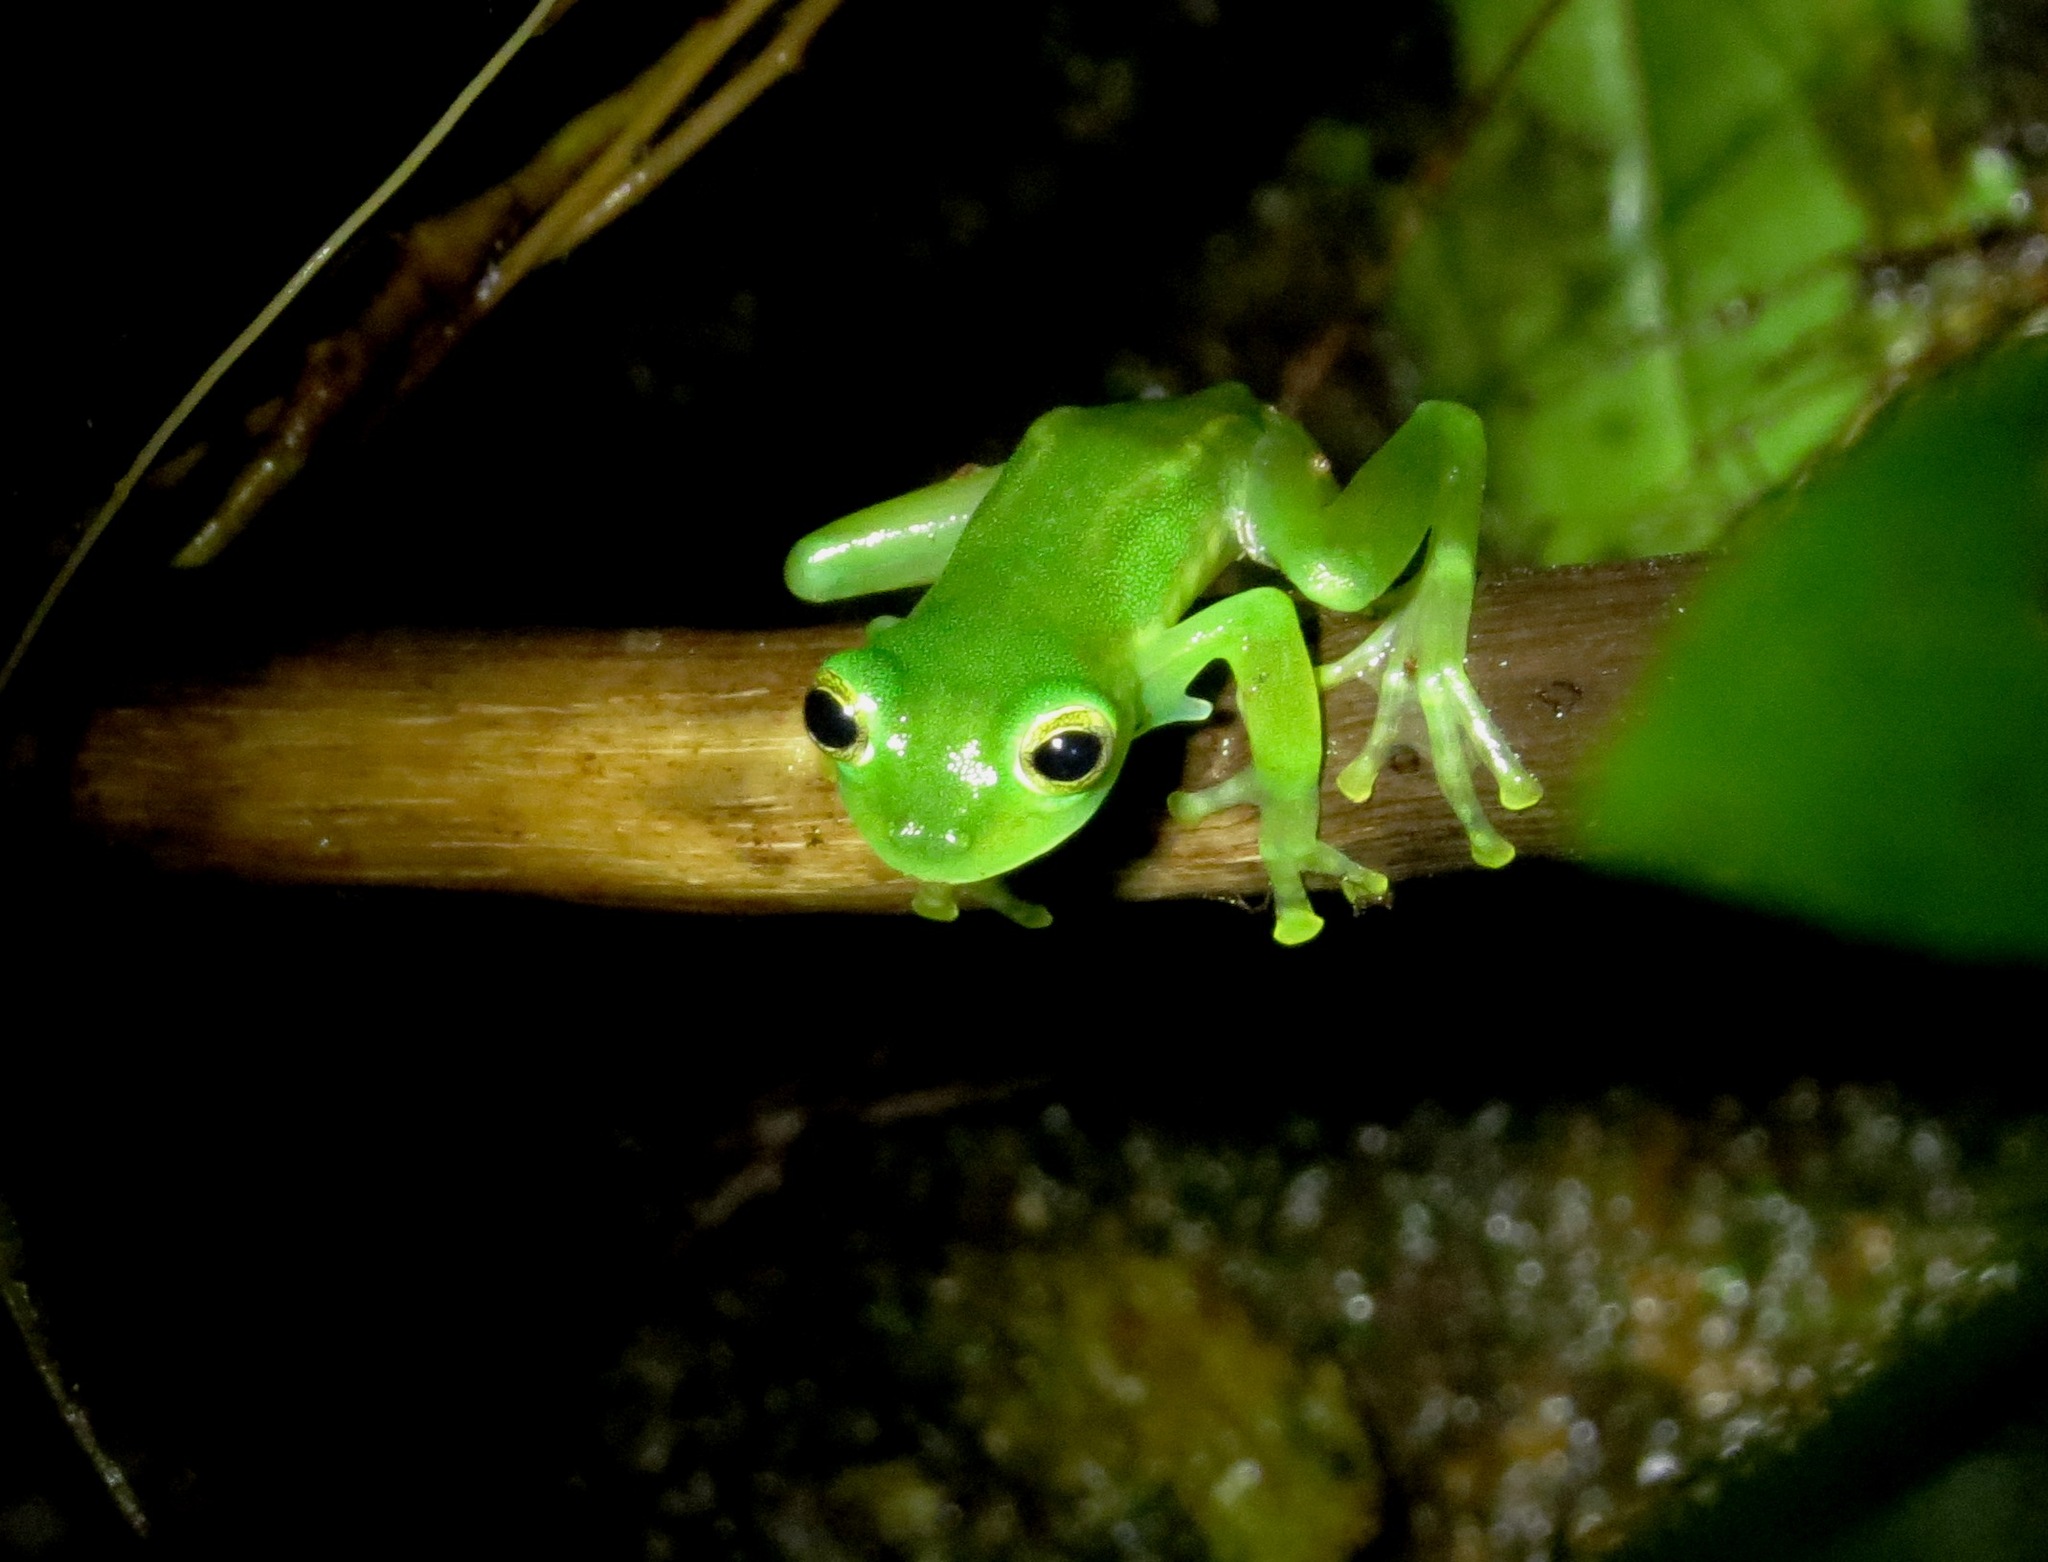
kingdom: Animalia
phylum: Chordata
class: Amphibia
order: Anura
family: Centrolenidae
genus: Espadarana
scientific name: Espadarana prosoblepon
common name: Rana de cristal variable
